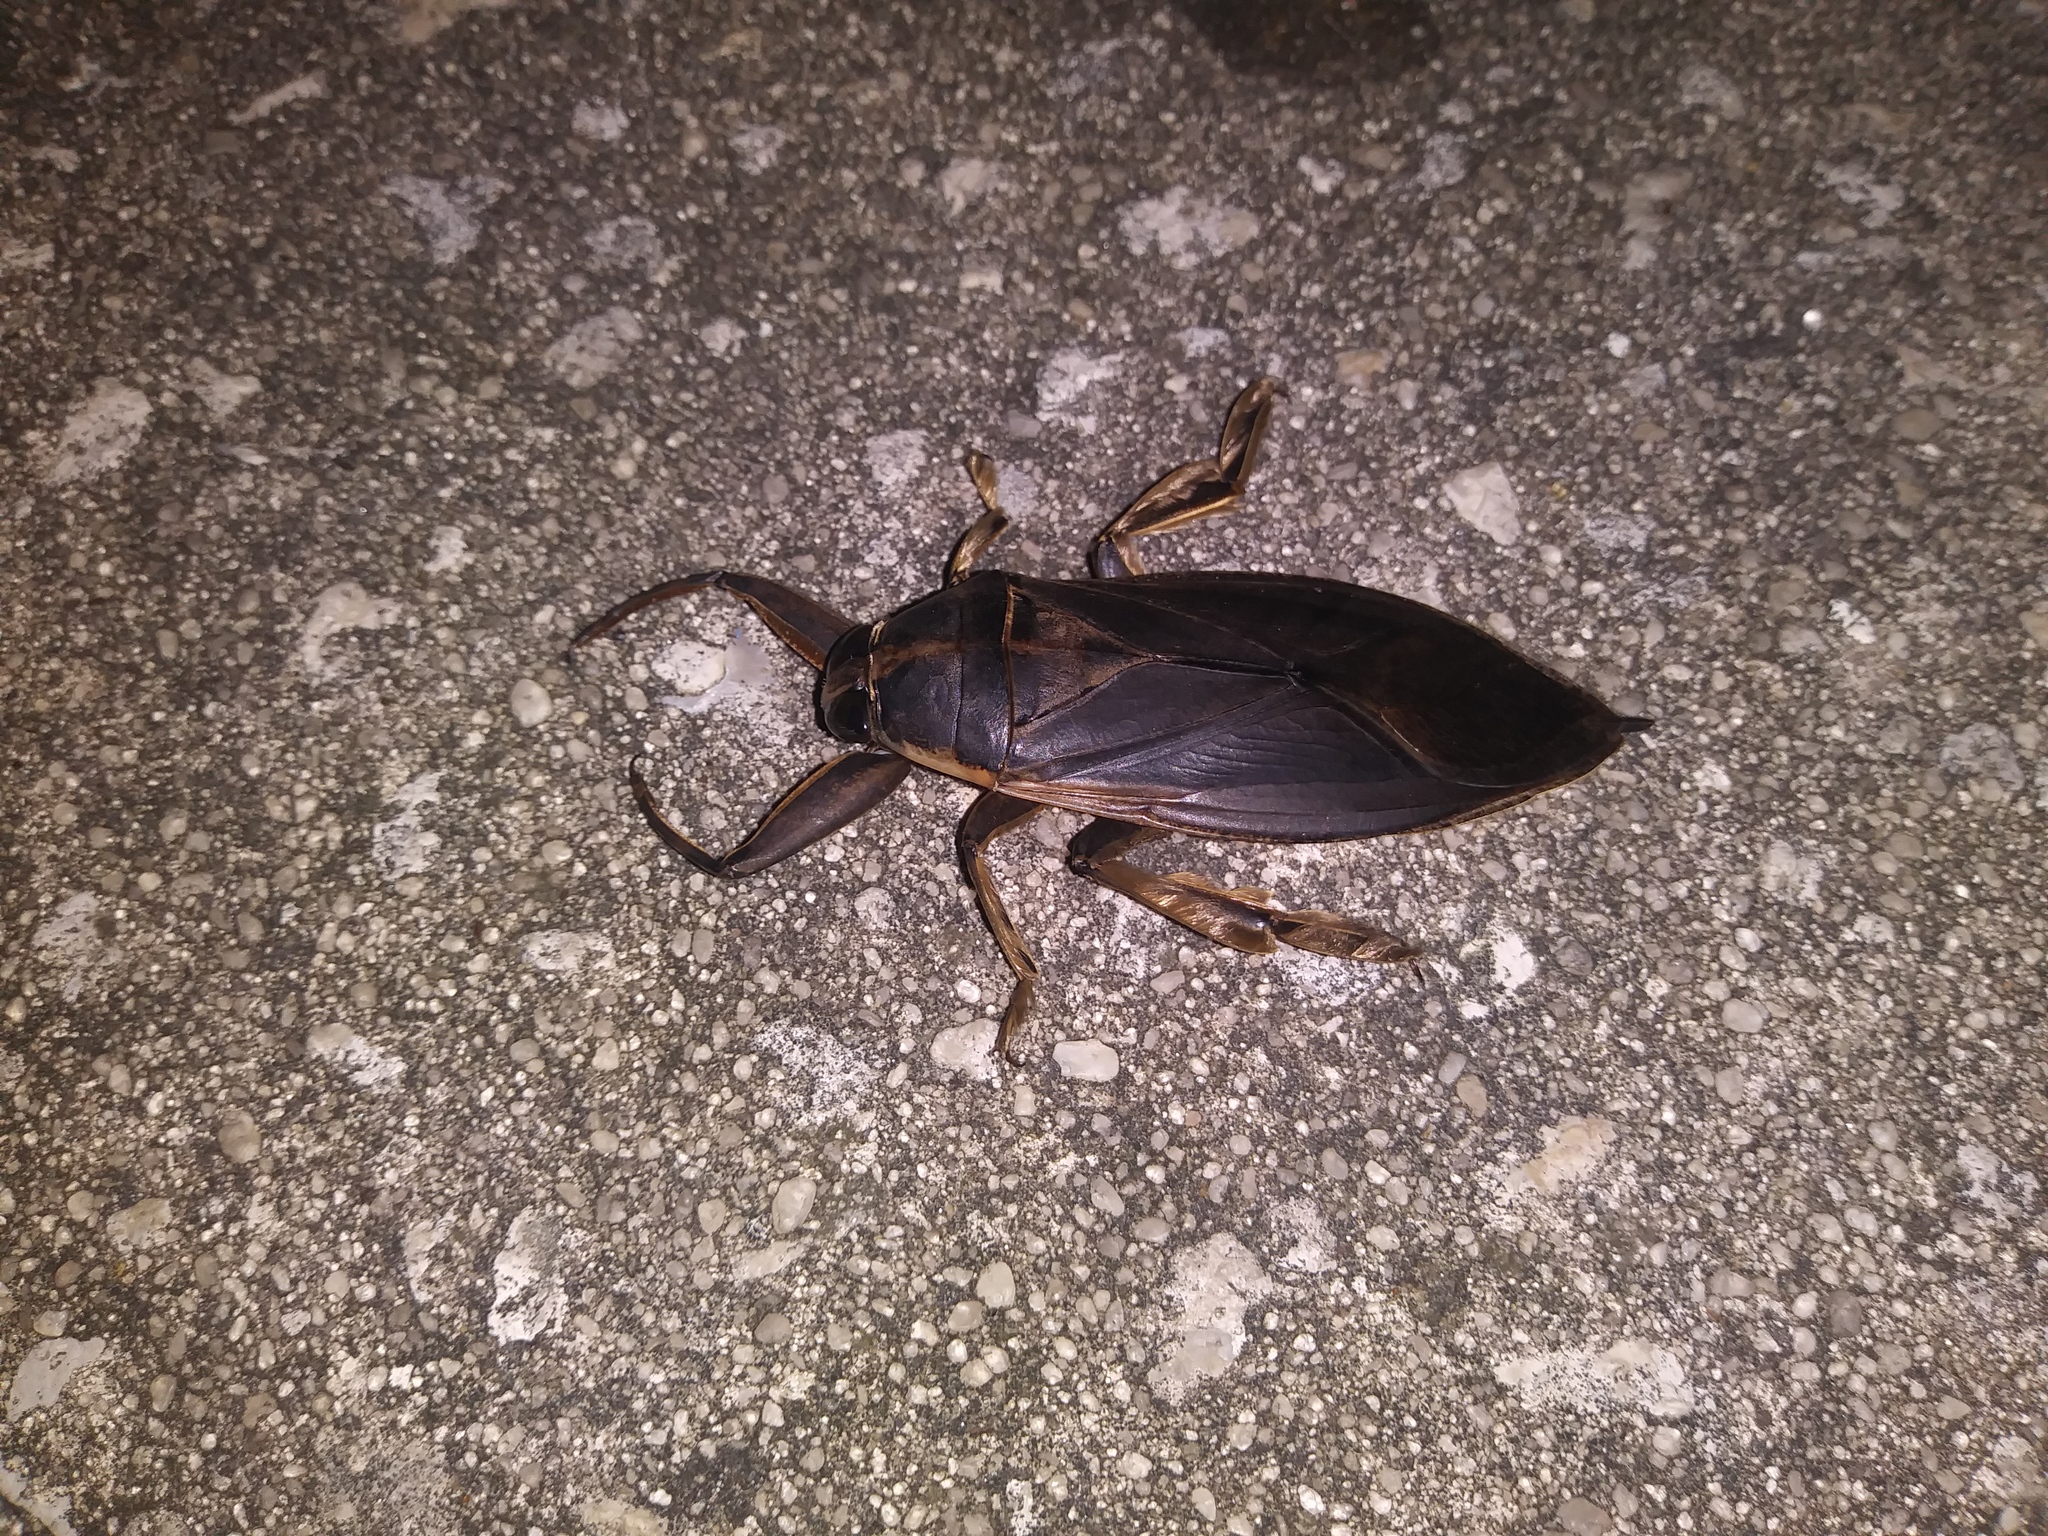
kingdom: Animalia
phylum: Arthropoda
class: Insecta
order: Hemiptera
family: Belostomatidae
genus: Benacus
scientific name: Benacus griseus
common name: Eastern toe-biter
